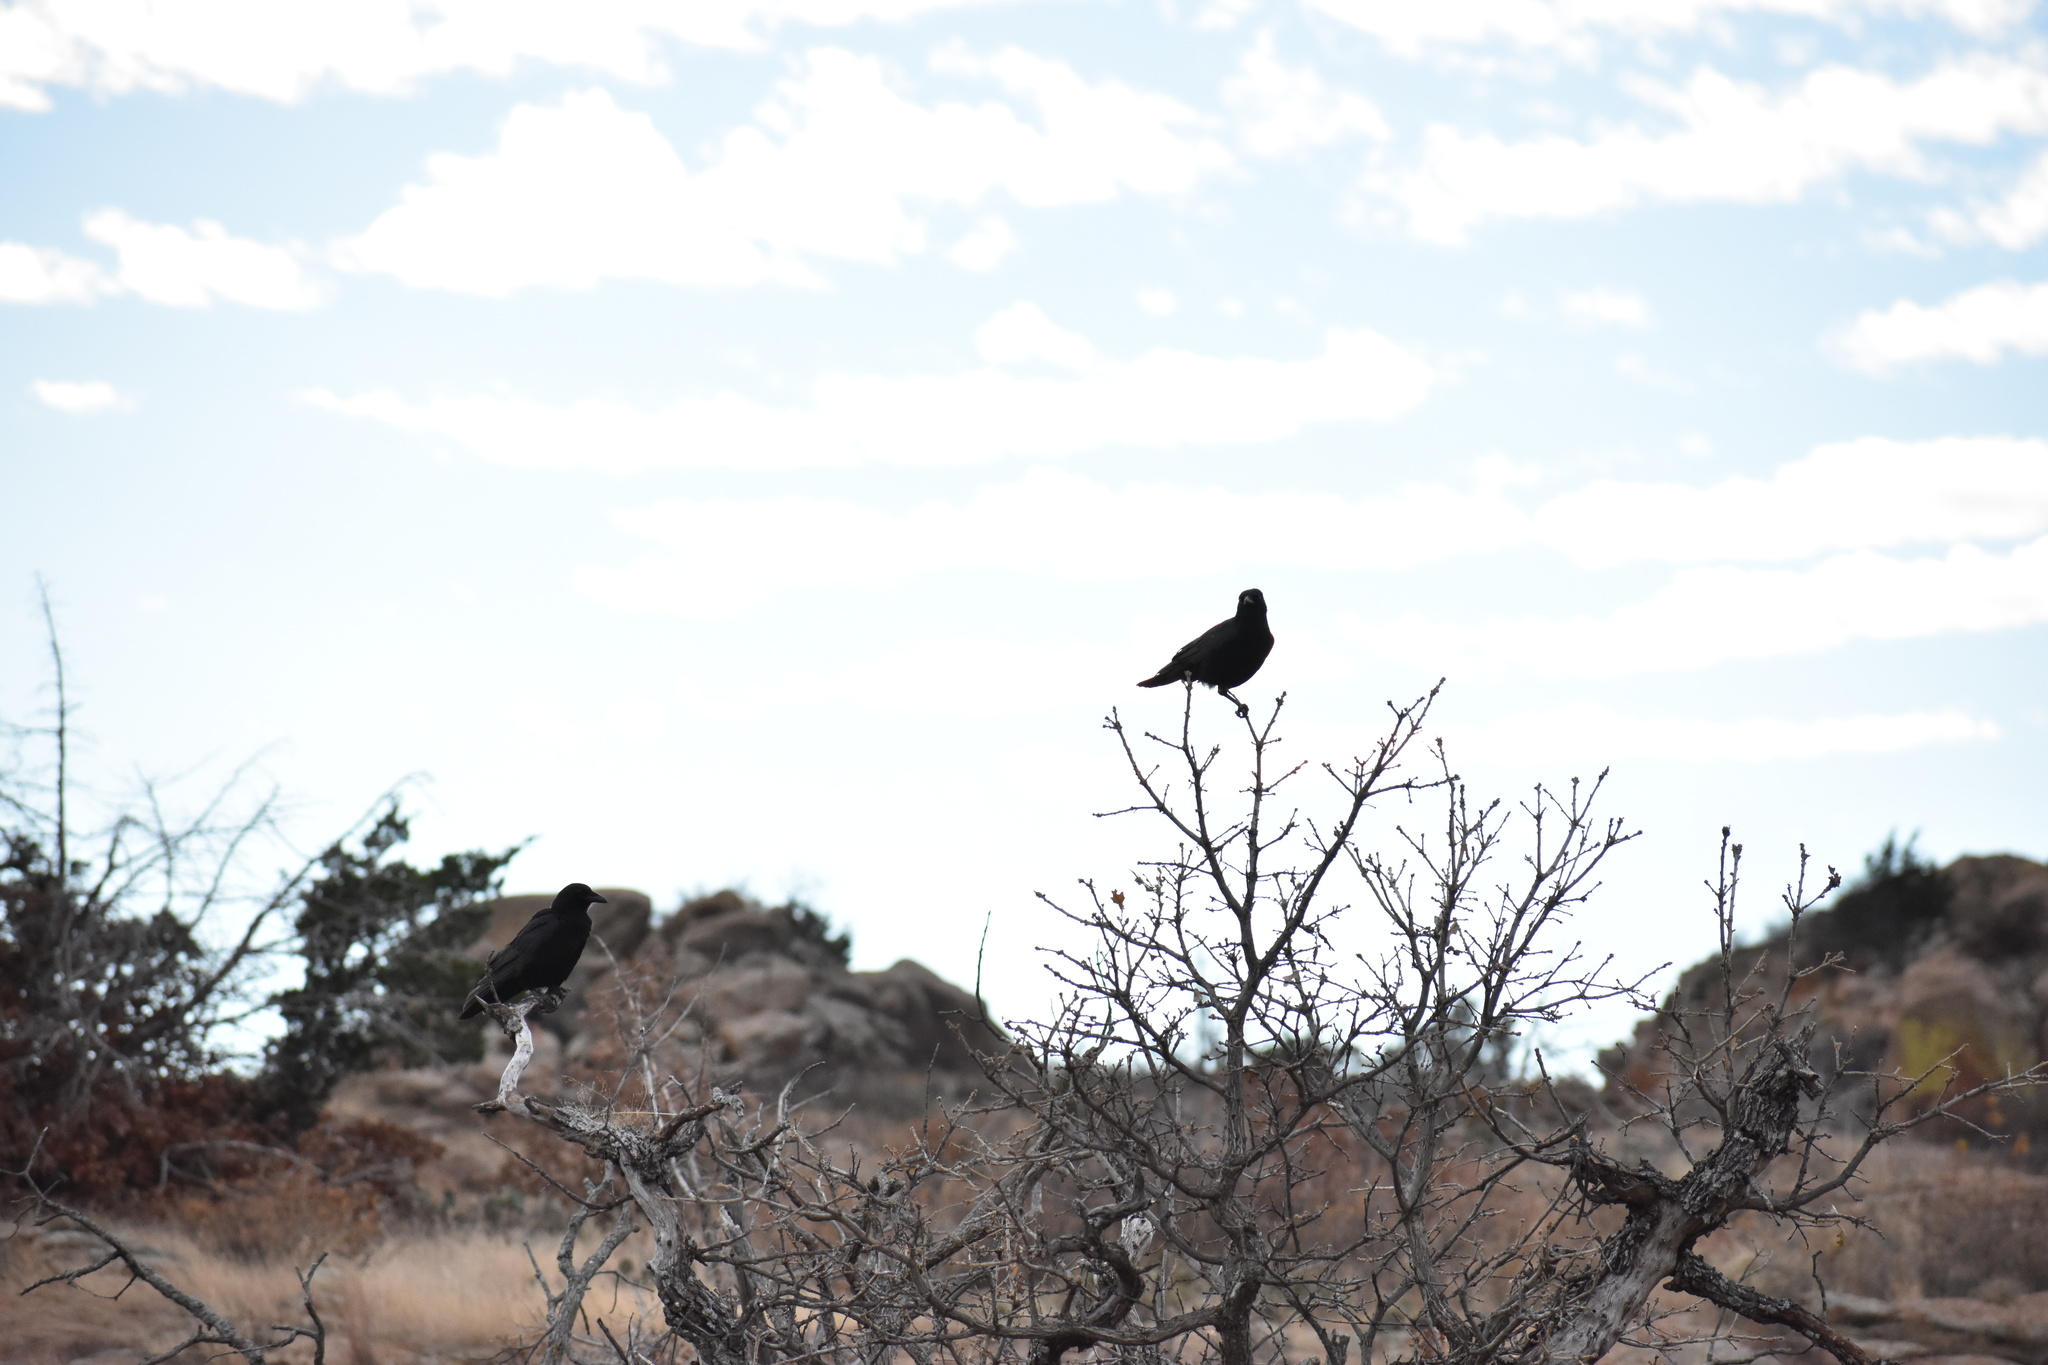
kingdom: Animalia
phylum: Chordata
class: Aves
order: Passeriformes
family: Corvidae
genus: Corvus
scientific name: Corvus brachyrhynchos
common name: American crow
